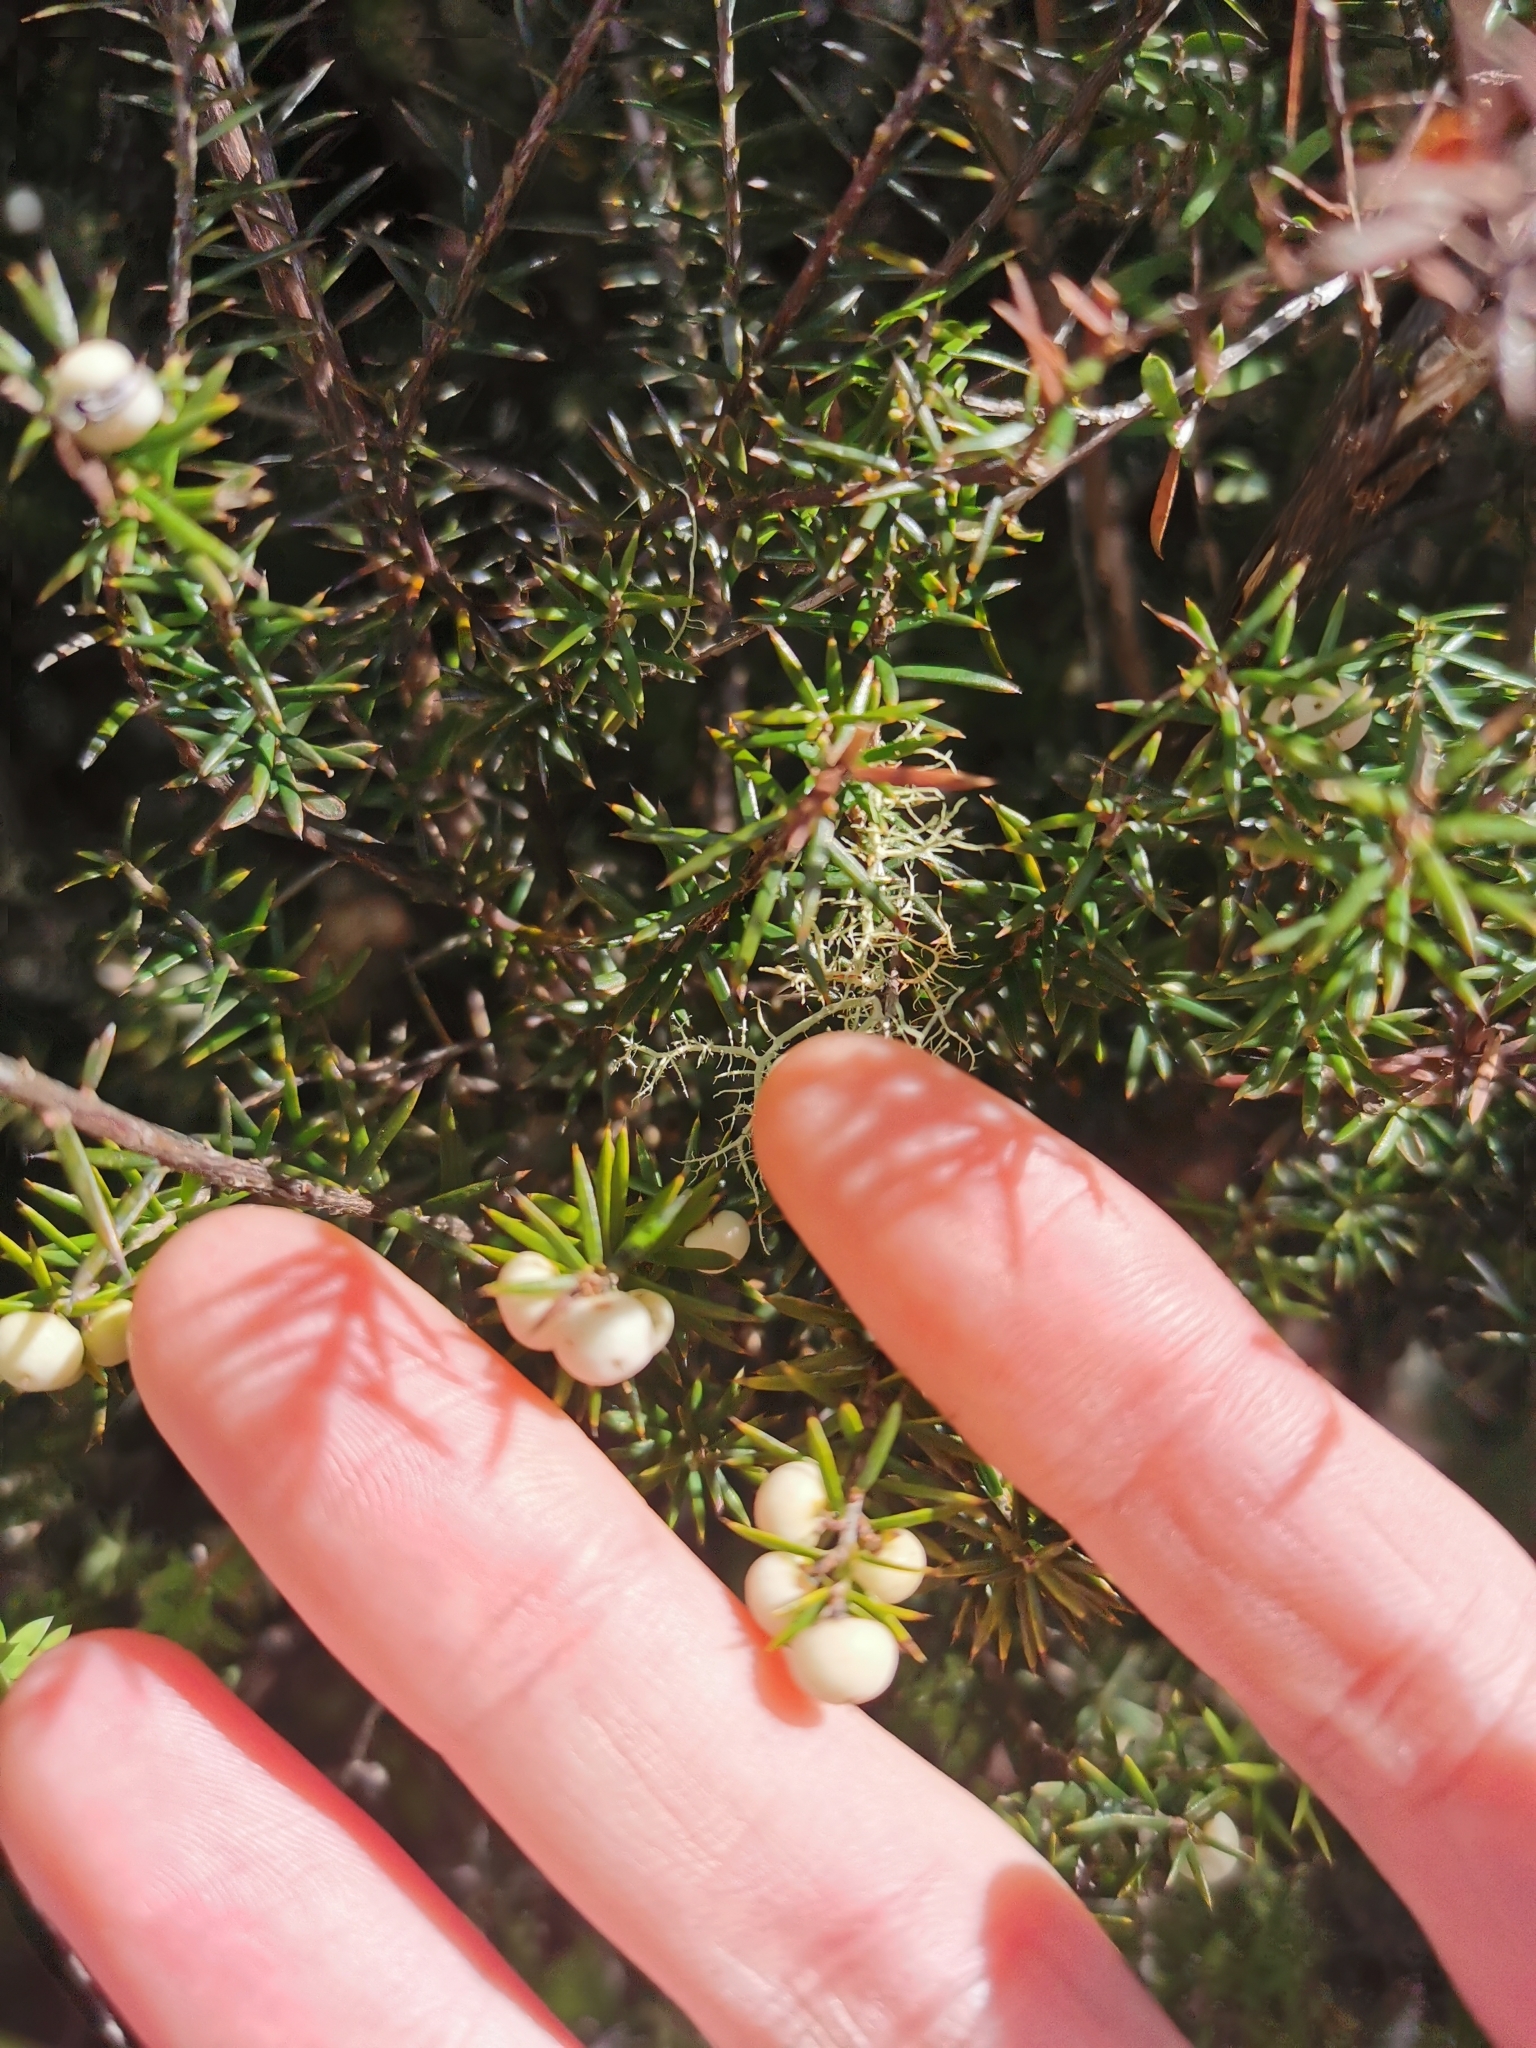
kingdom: Plantae
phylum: Tracheophyta
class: Magnoliopsida
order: Ericales
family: Ericaceae
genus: Leptecophylla
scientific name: Leptecophylla juniperina
